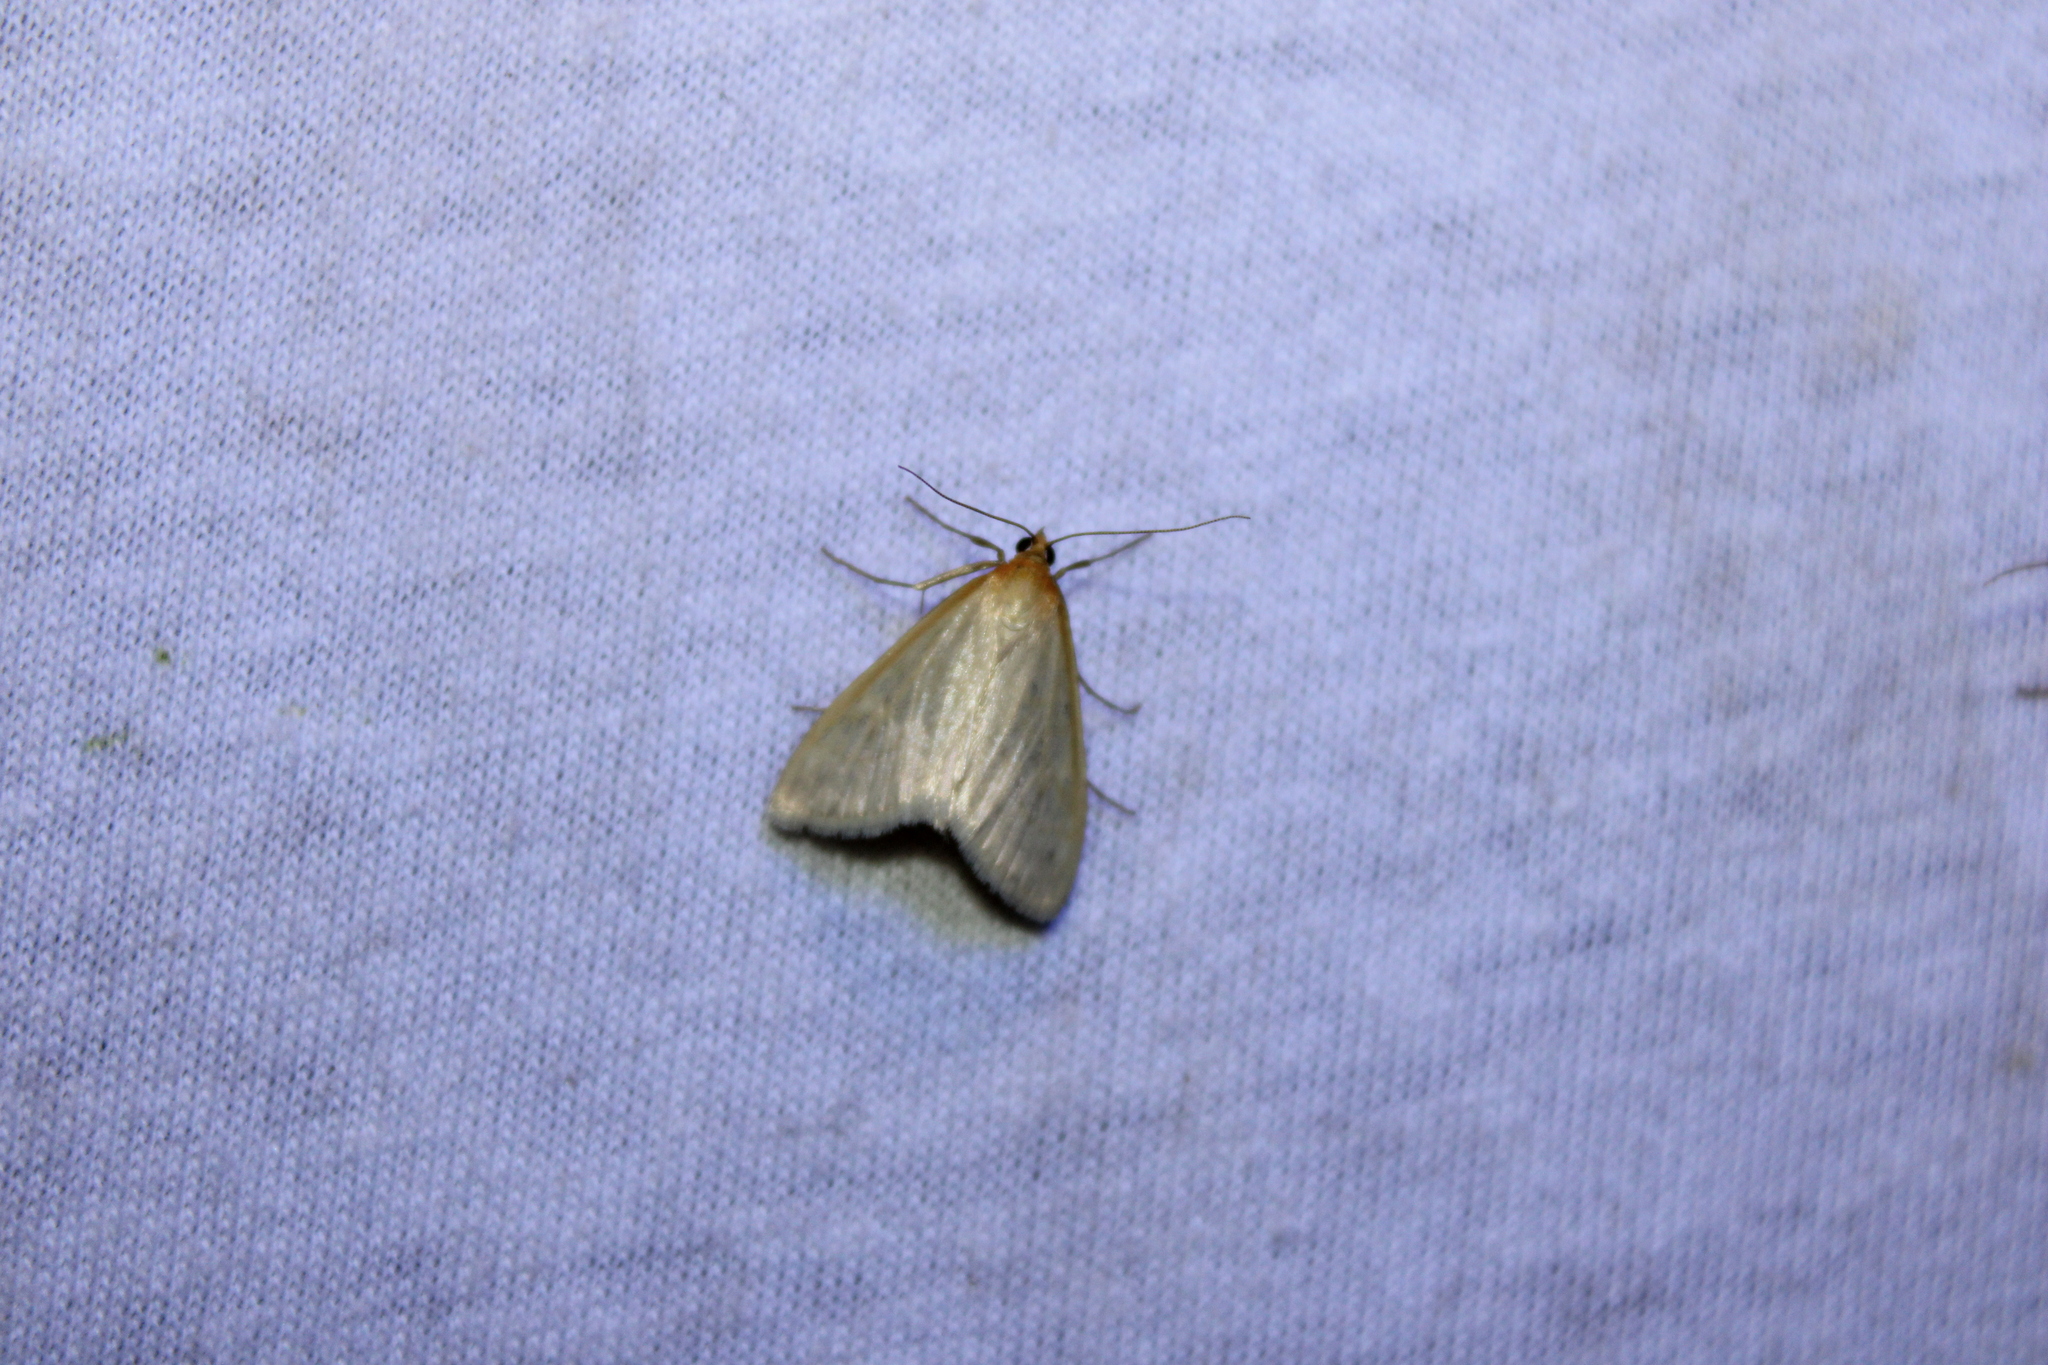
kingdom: Animalia
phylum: Arthropoda
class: Insecta
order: Lepidoptera
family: Crambidae
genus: Sitochroa
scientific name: Sitochroa dasconalis
